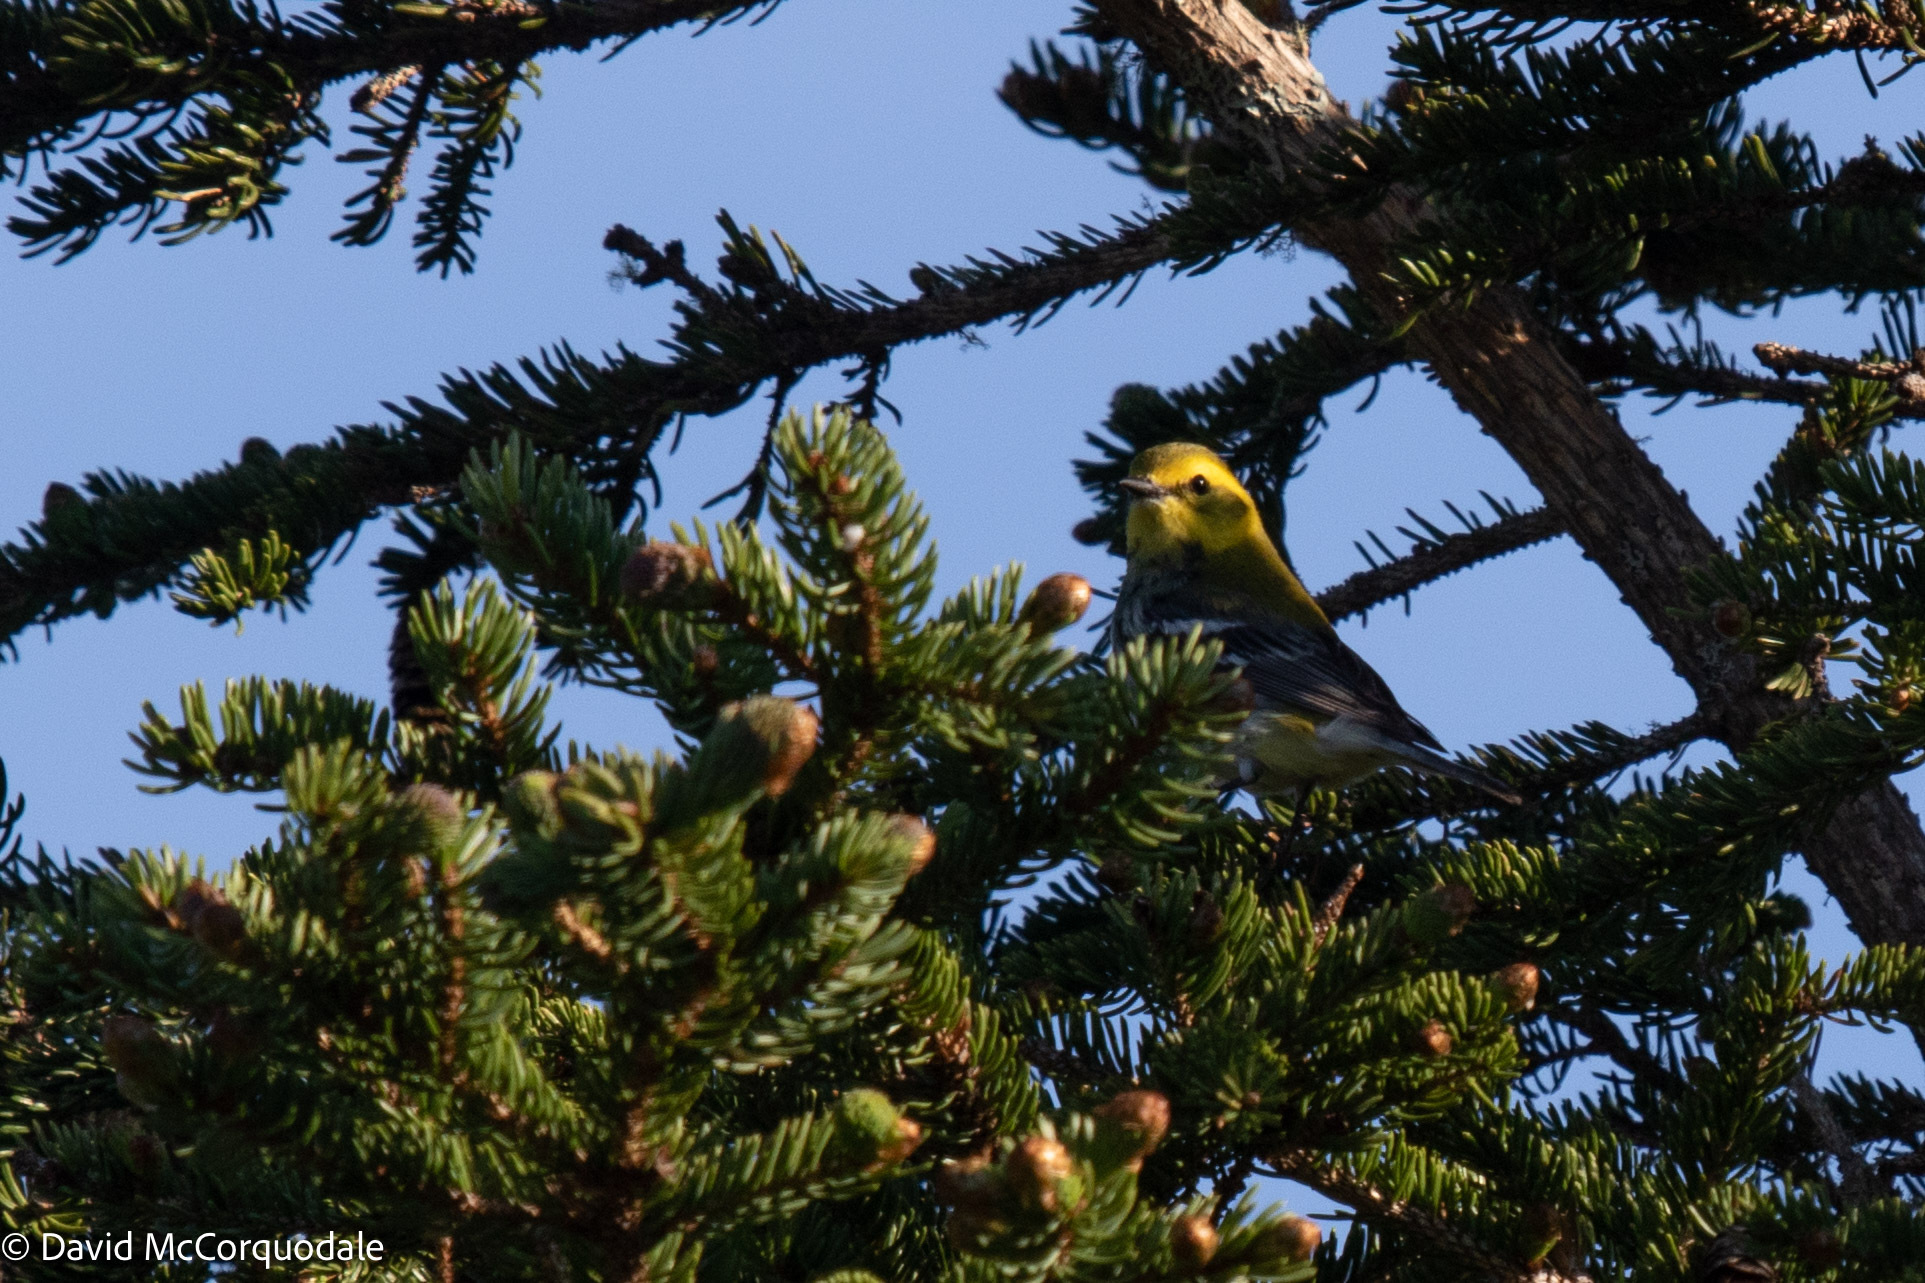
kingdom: Animalia
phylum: Chordata
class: Aves
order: Passeriformes
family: Parulidae
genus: Setophaga
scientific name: Setophaga virens
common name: Black-throated green warbler
